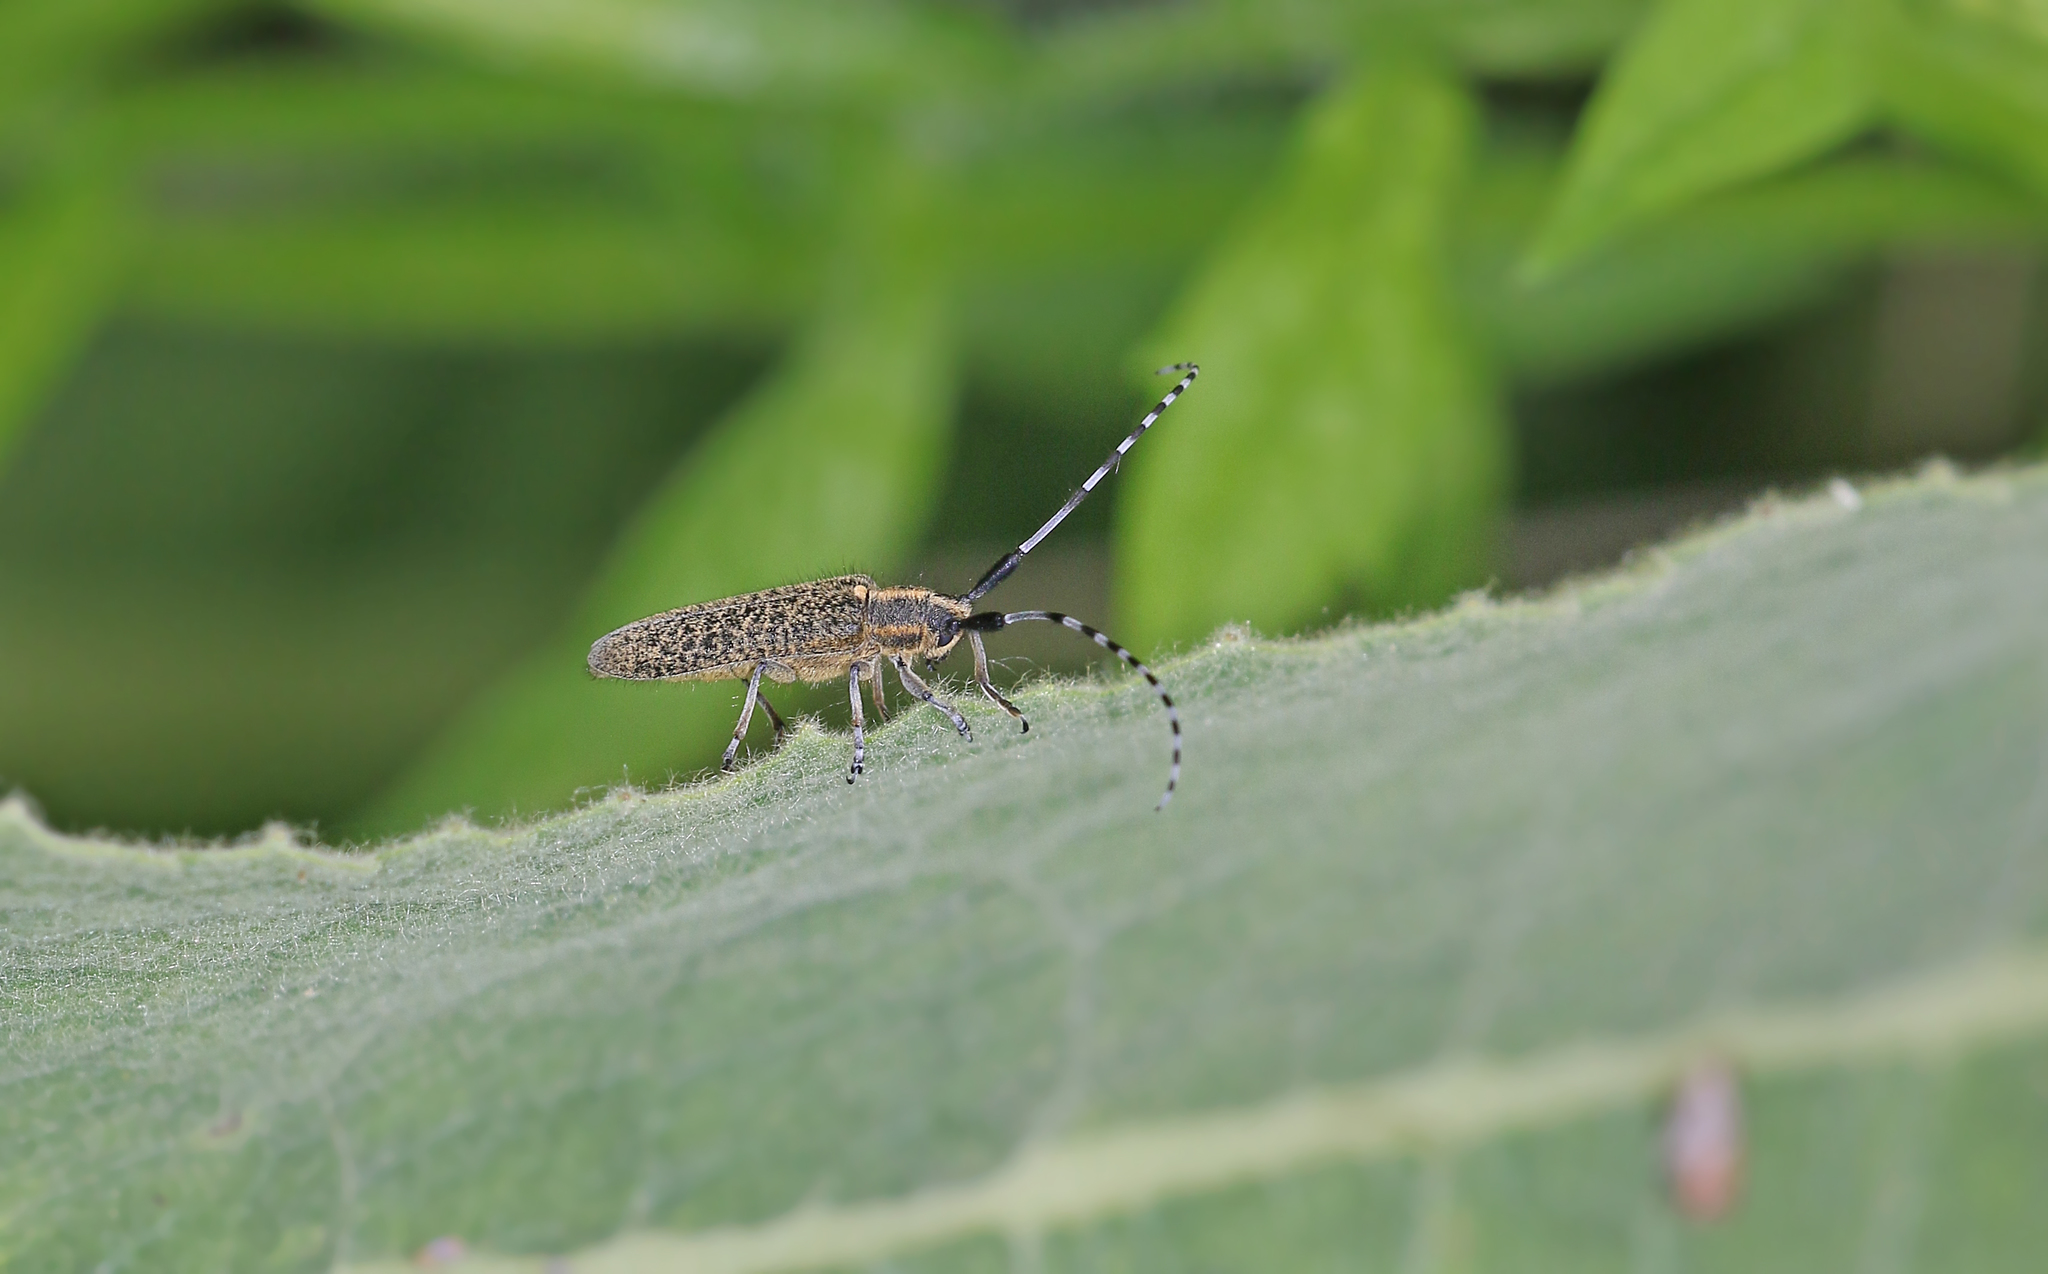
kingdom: Animalia
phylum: Arthropoda
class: Insecta
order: Coleoptera
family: Cerambycidae
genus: Agapanthia
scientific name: Agapanthia villosoviridescens
